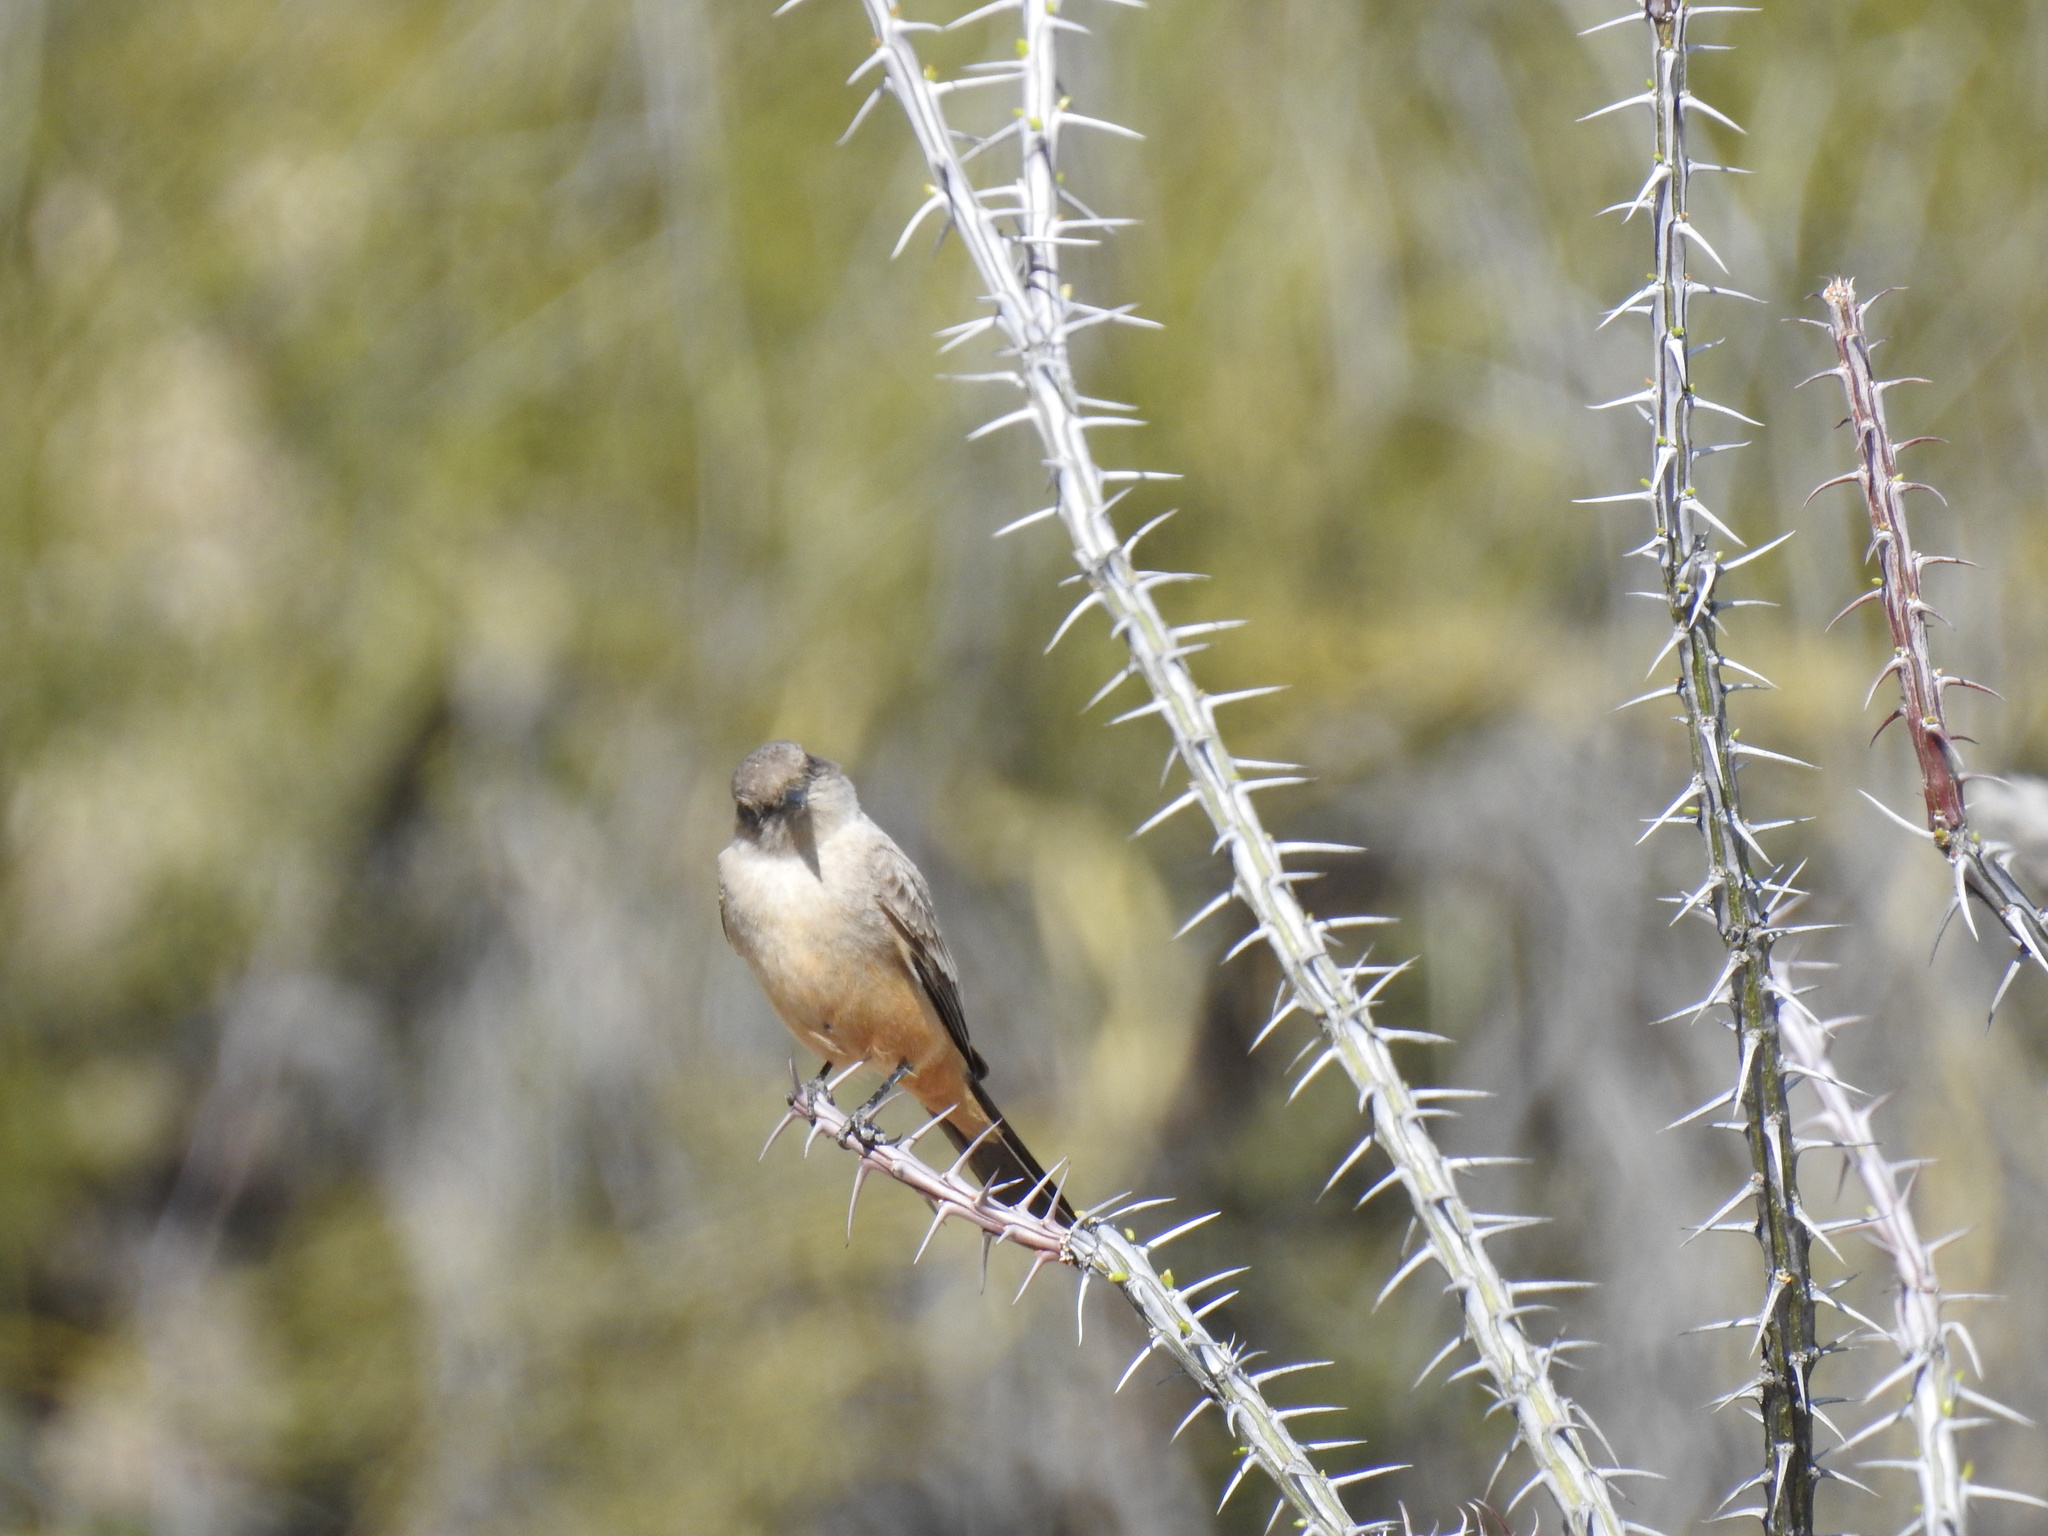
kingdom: Animalia
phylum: Chordata
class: Aves
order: Passeriformes
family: Tyrannidae
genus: Sayornis
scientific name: Sayornis saya
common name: Say's phoebe
